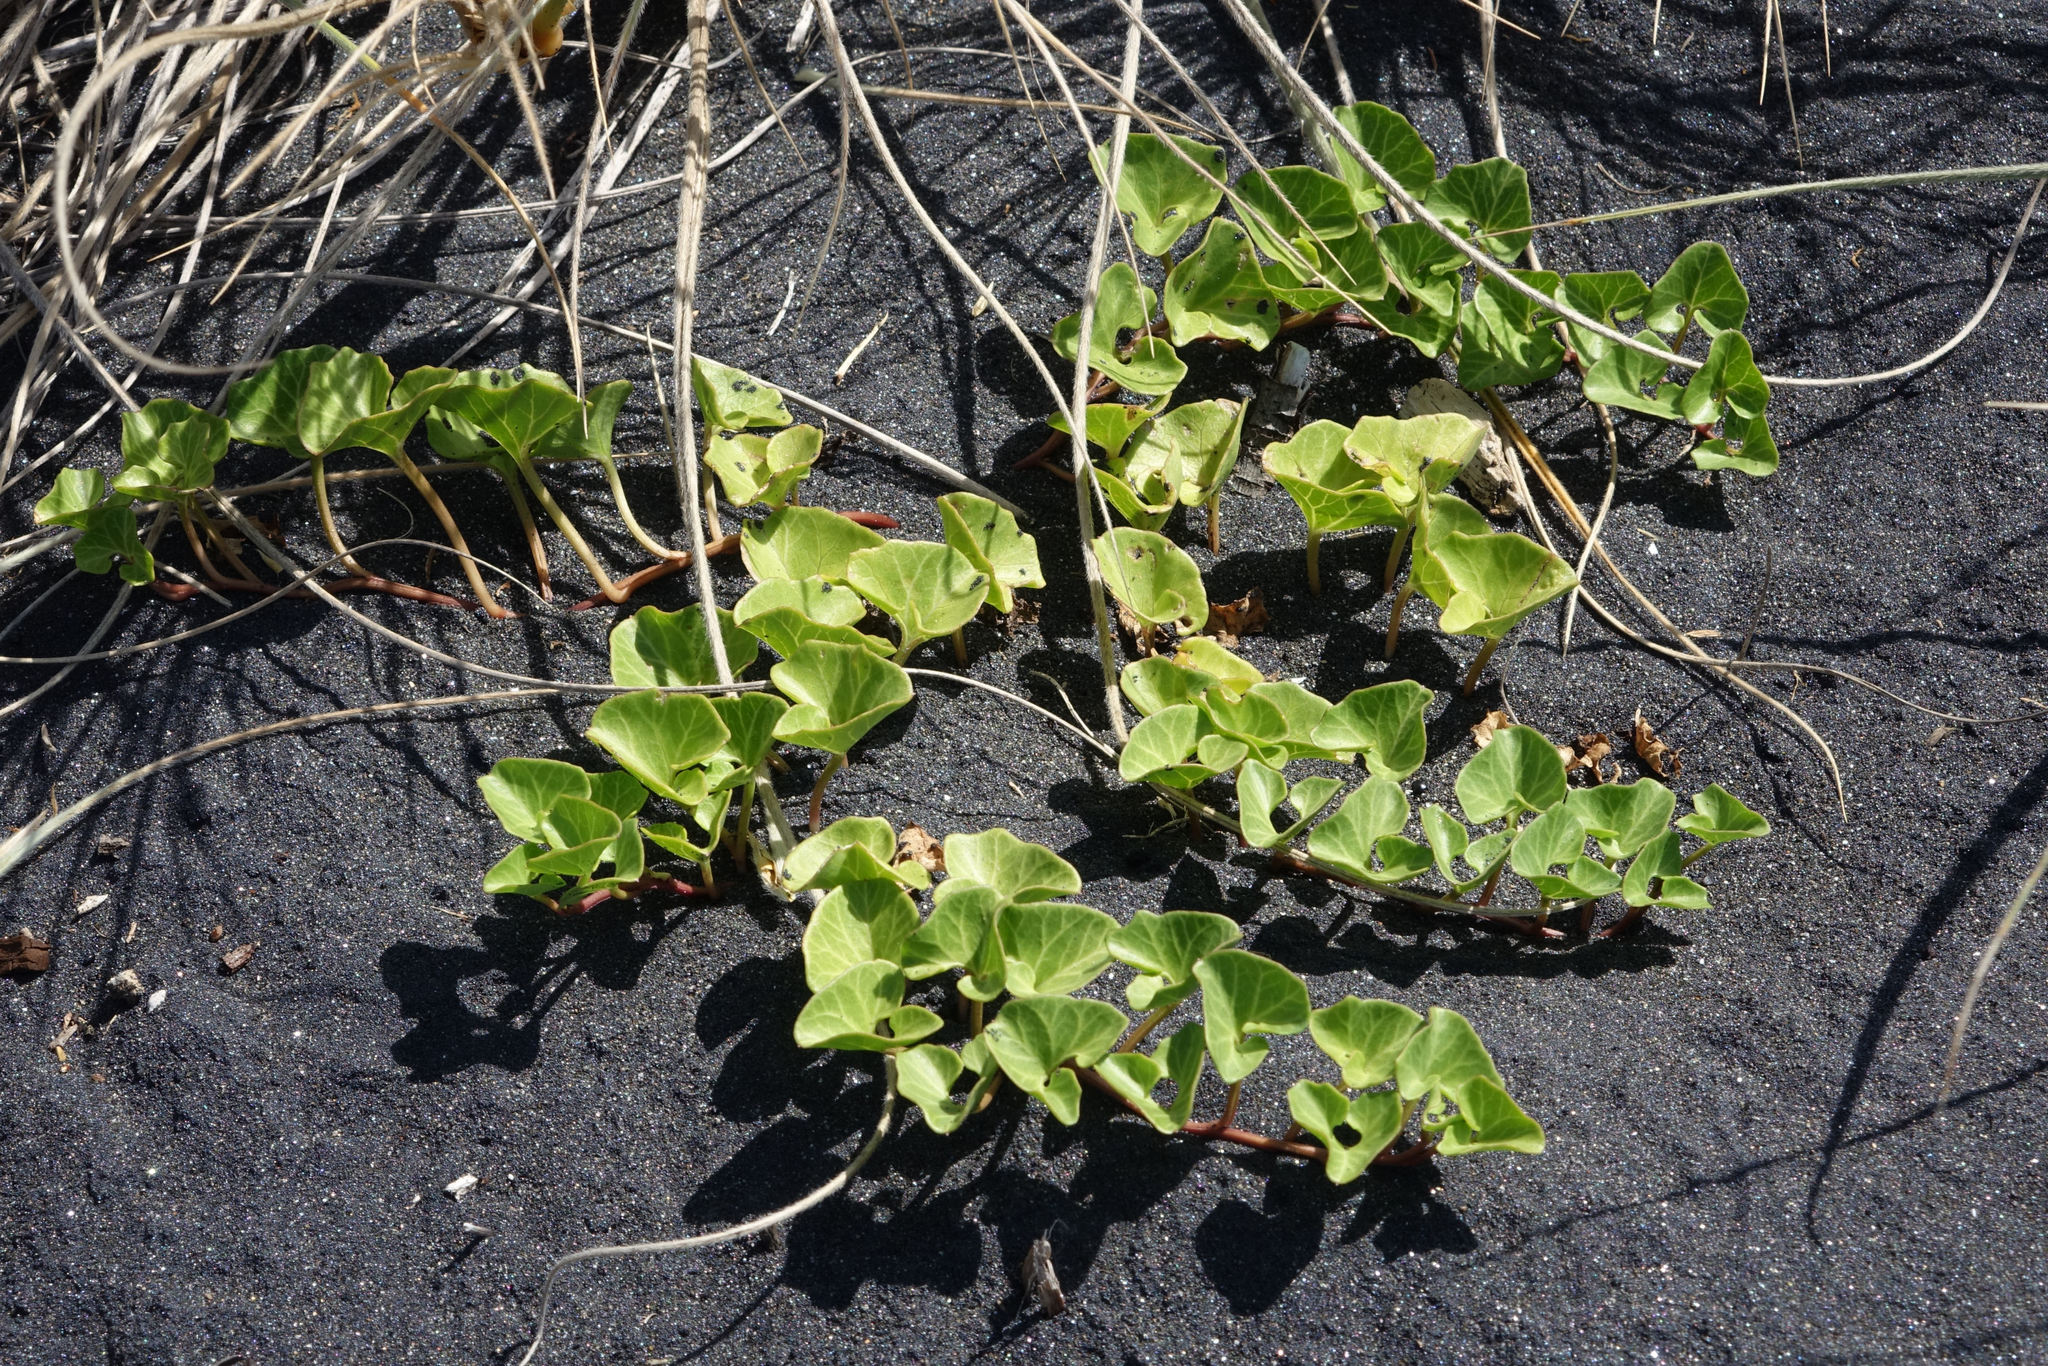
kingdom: Plantae
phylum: Tracheophyta
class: Magnoliopsida
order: Solanales
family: Convolvulaceae
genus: Calystegia
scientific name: Calystegia soldanella
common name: Sea bindweed
